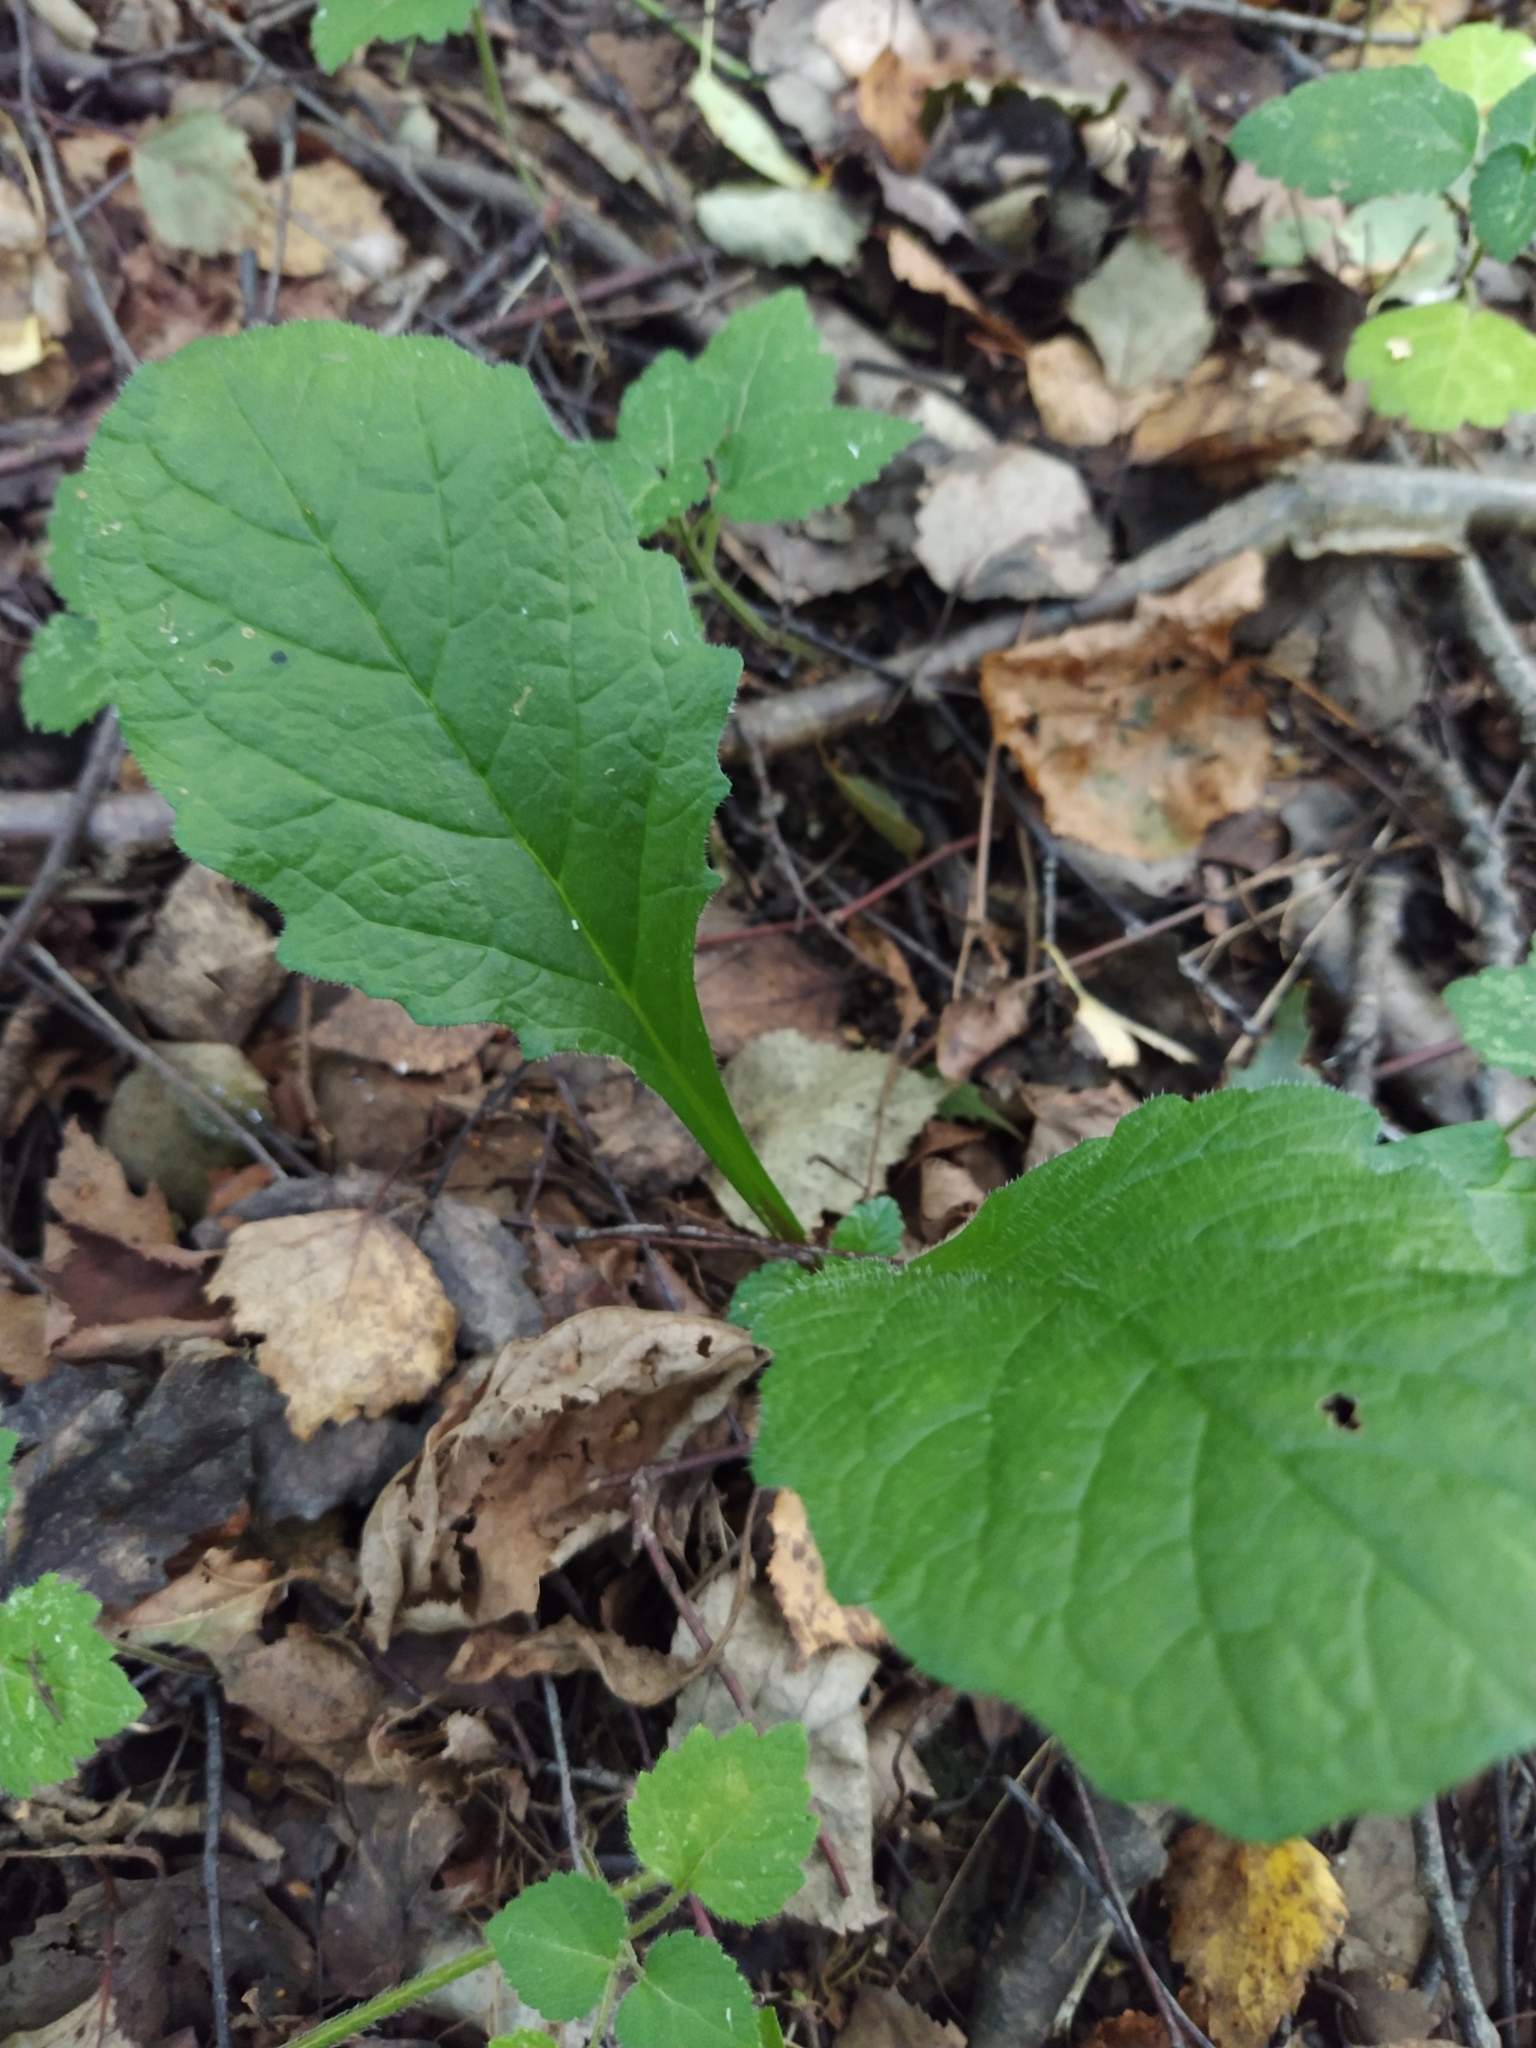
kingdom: Plantae
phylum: Tracheophyta
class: Magnoliopsida
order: Lamiales
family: Lamiaceae
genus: Ajuga
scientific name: Ajuga reptans
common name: Bugle
